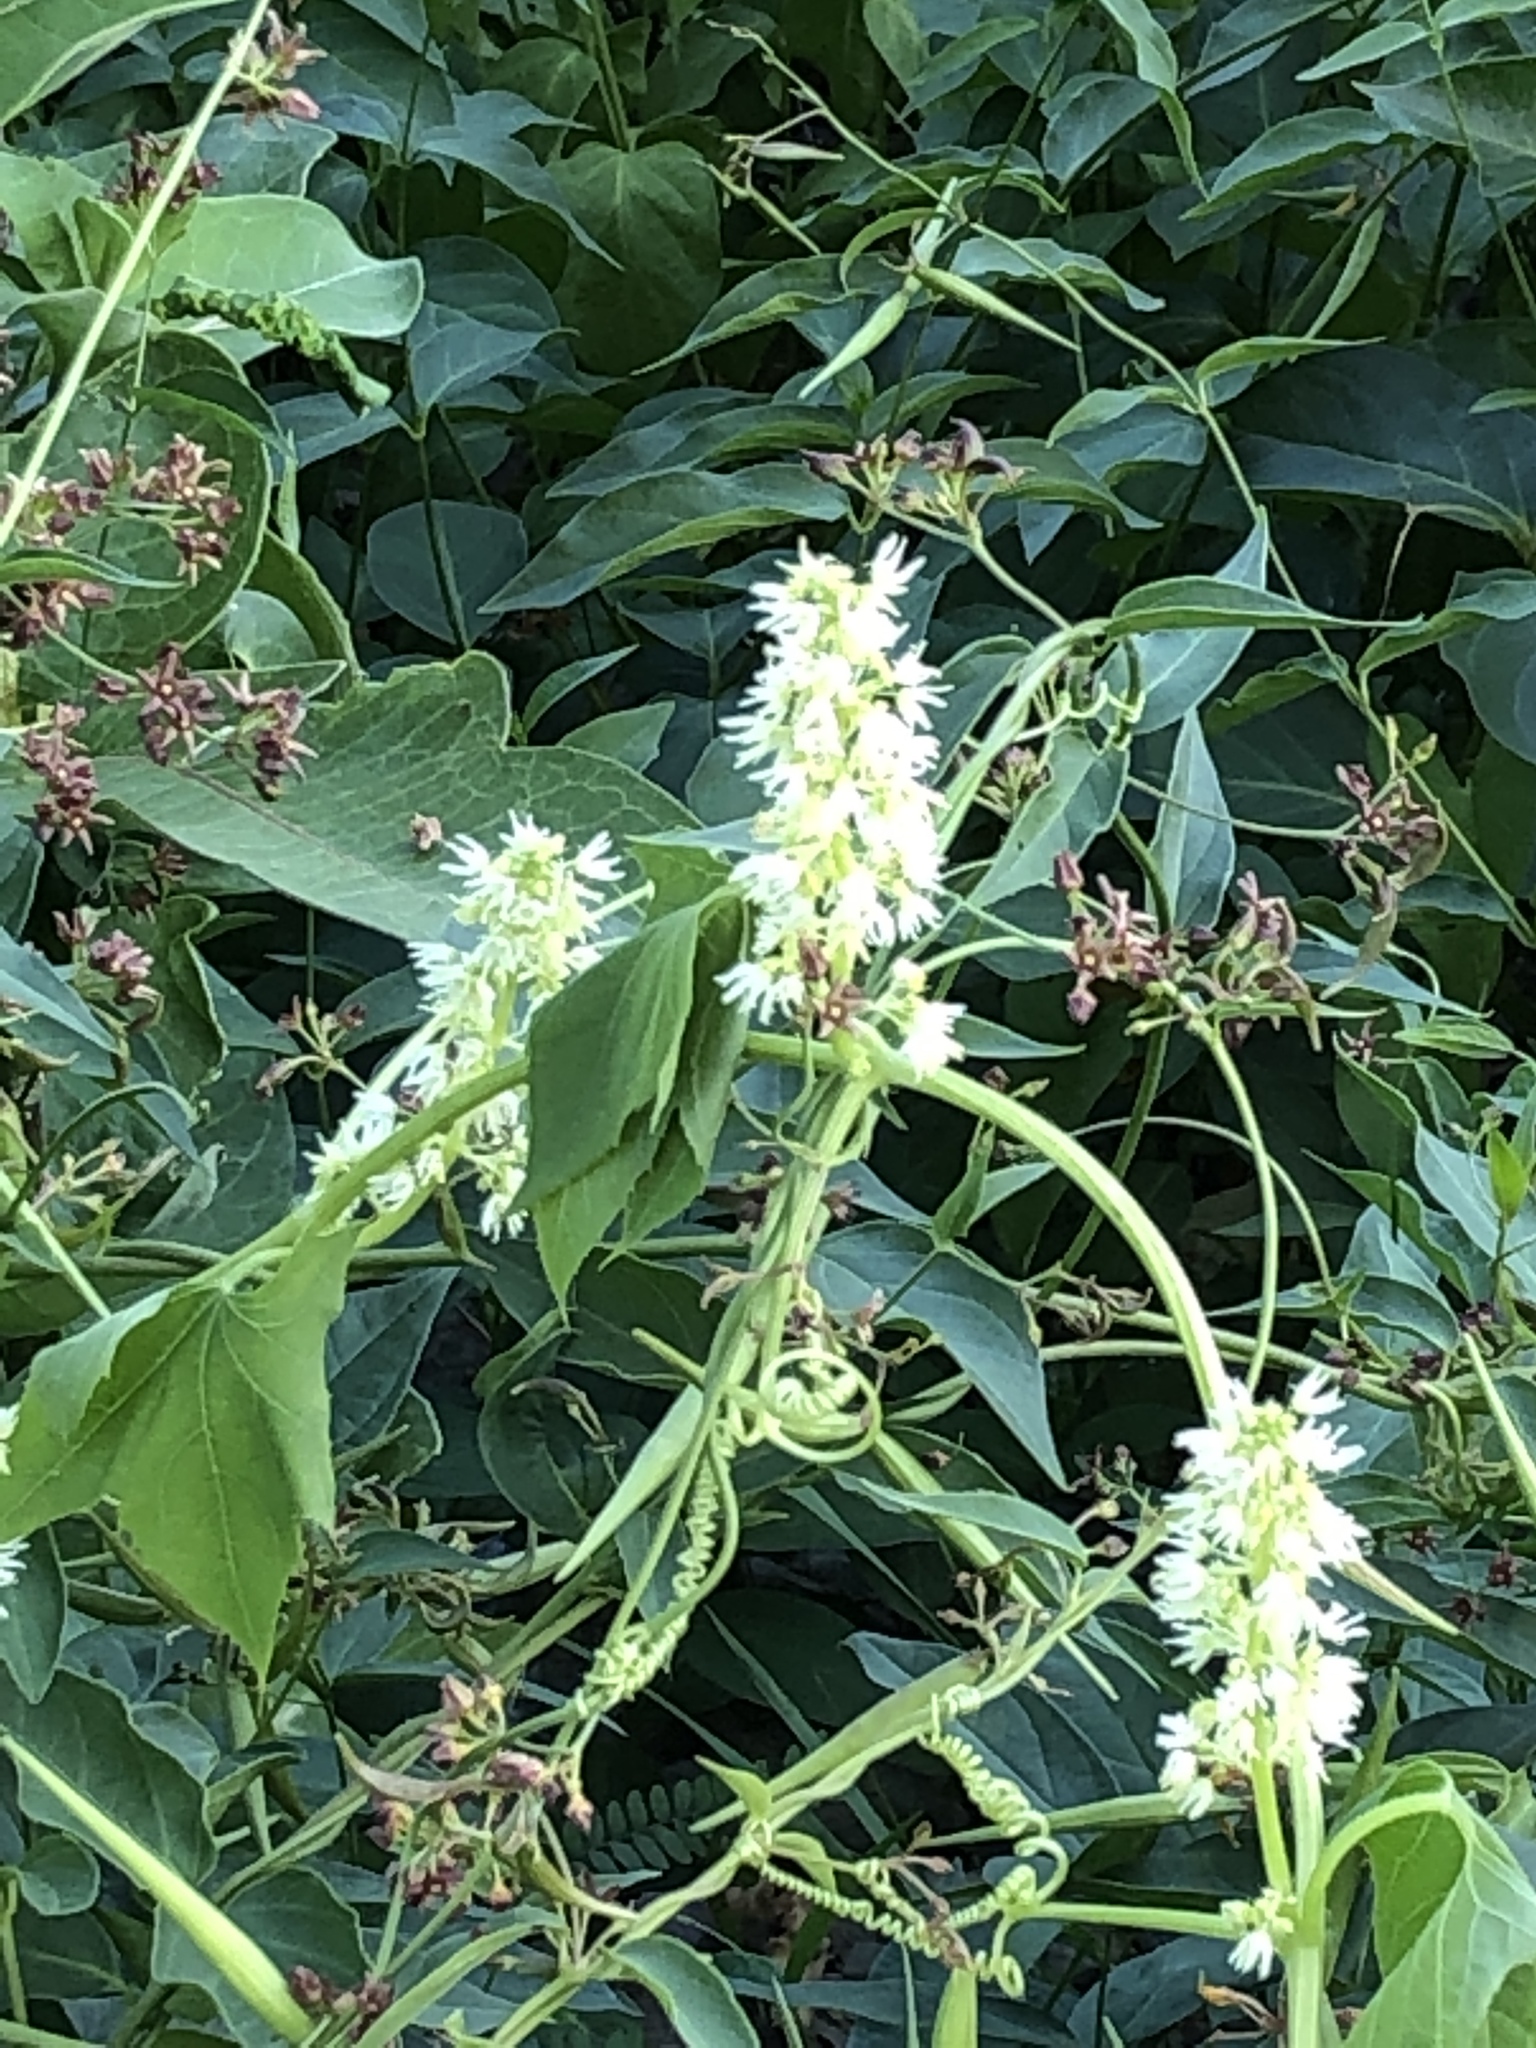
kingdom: Plantae
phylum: Tracheophyta
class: Magnoliopsida
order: Cucurbitales
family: Cucurbitaceae
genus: Echinocystis
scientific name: Echinocystis lobata
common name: Wild cucumber
